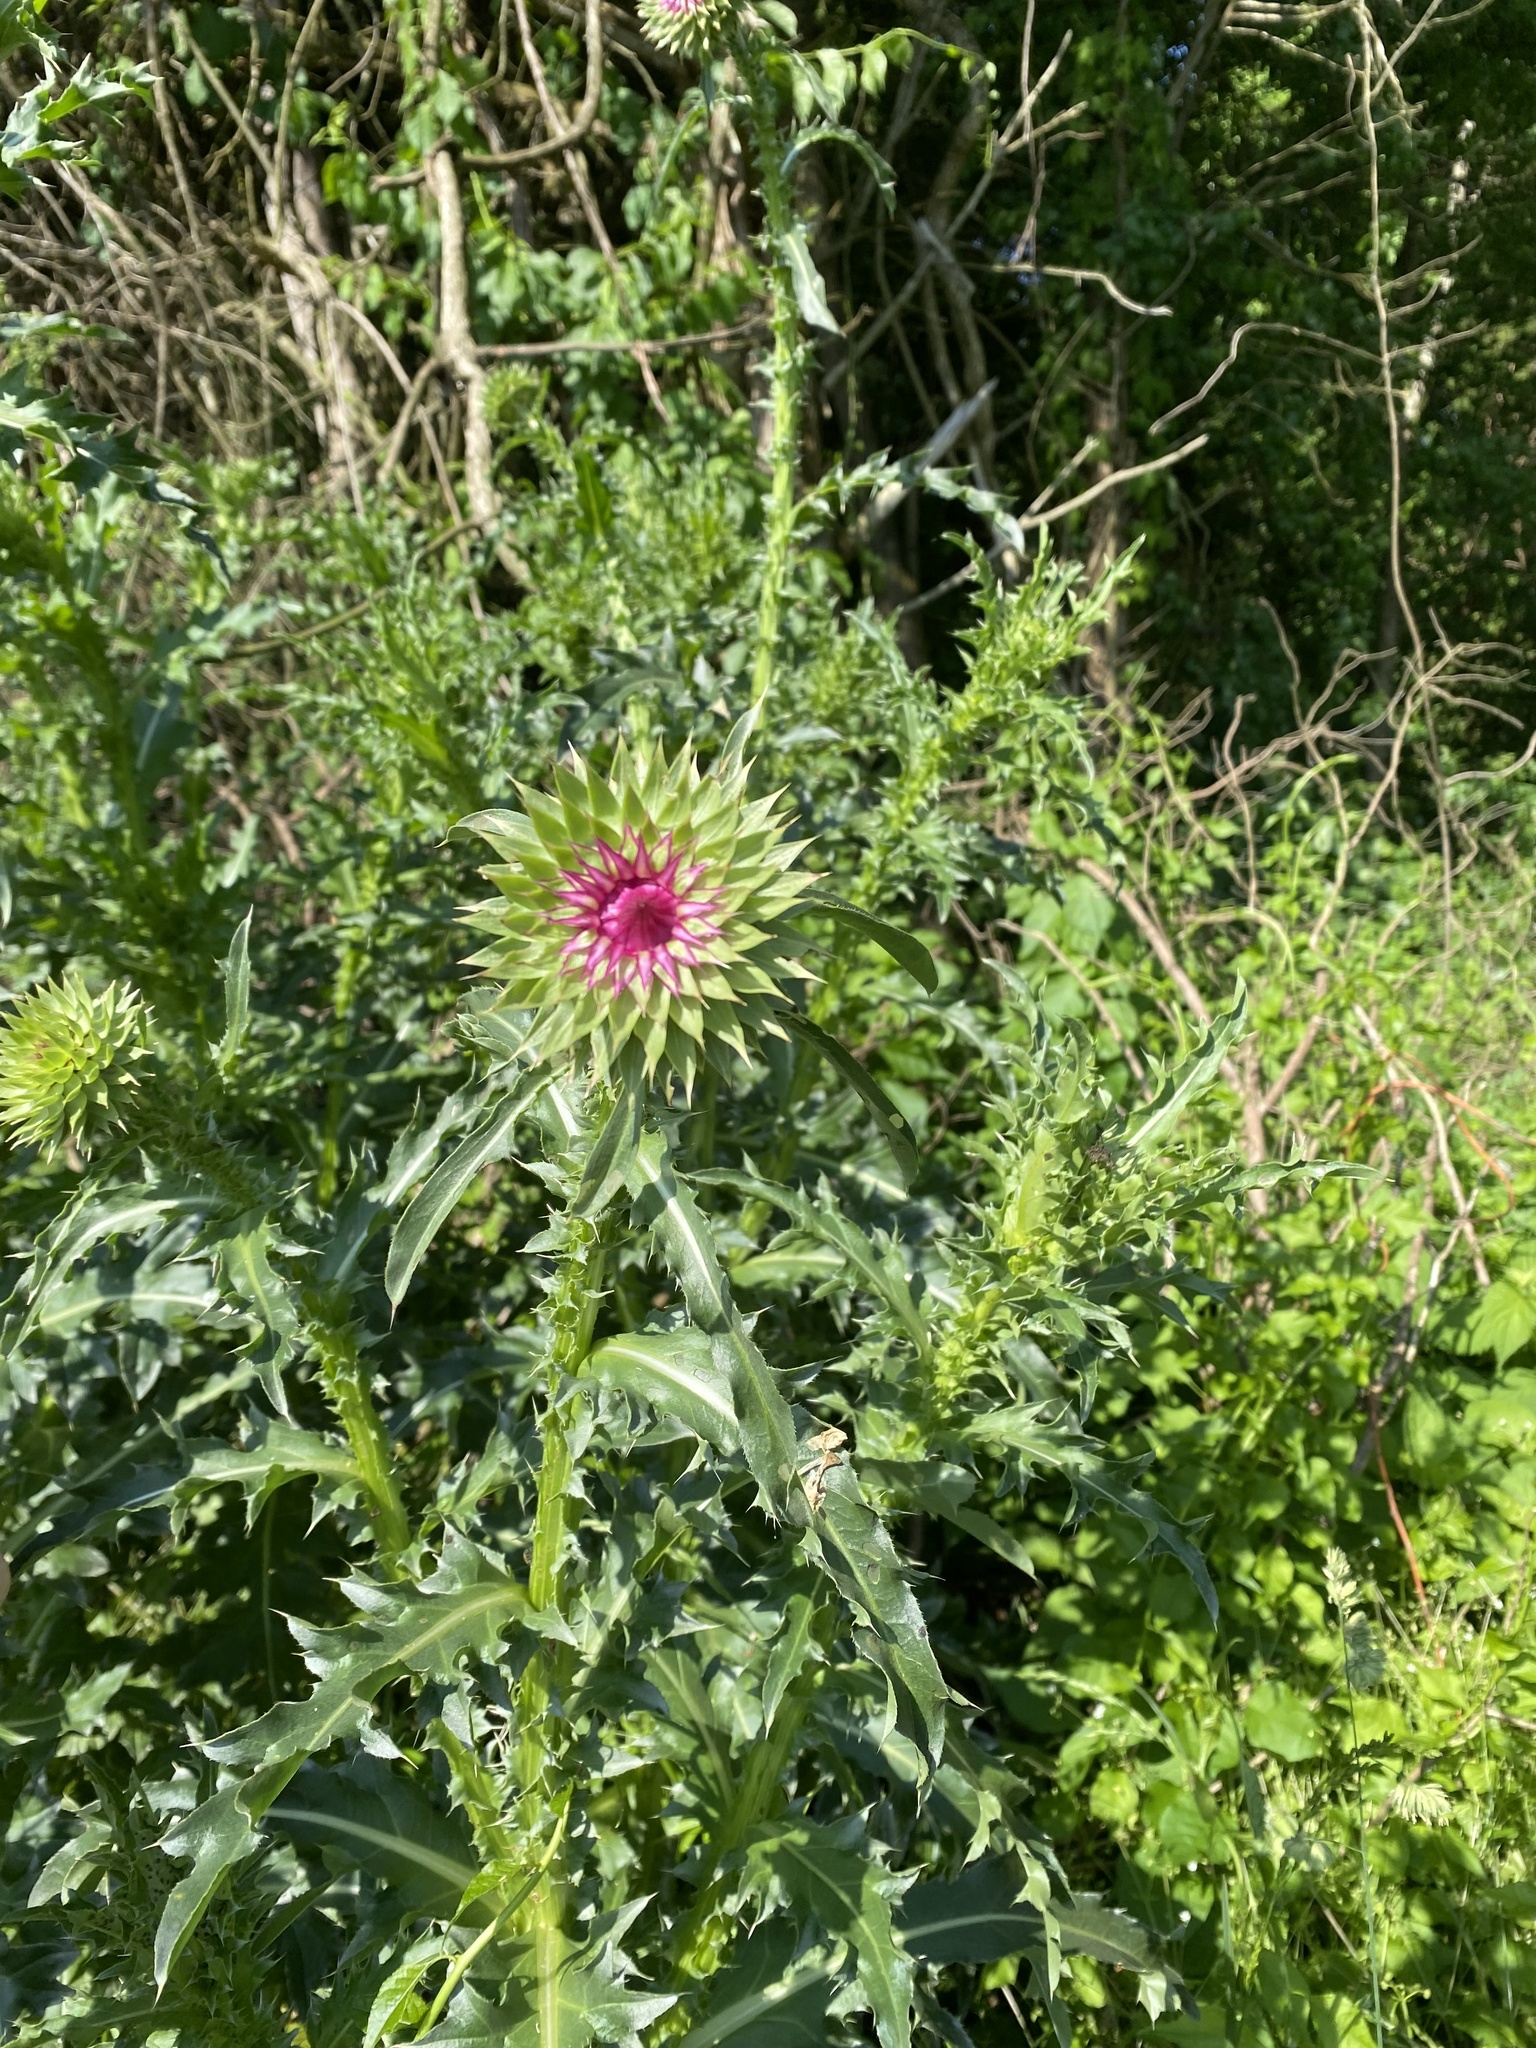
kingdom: Plantae
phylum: Tracheophyta
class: Magnoliopsida
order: Asterales
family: Asteraceae
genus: Carduus
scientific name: Carduus nutans
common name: Musk thistle
